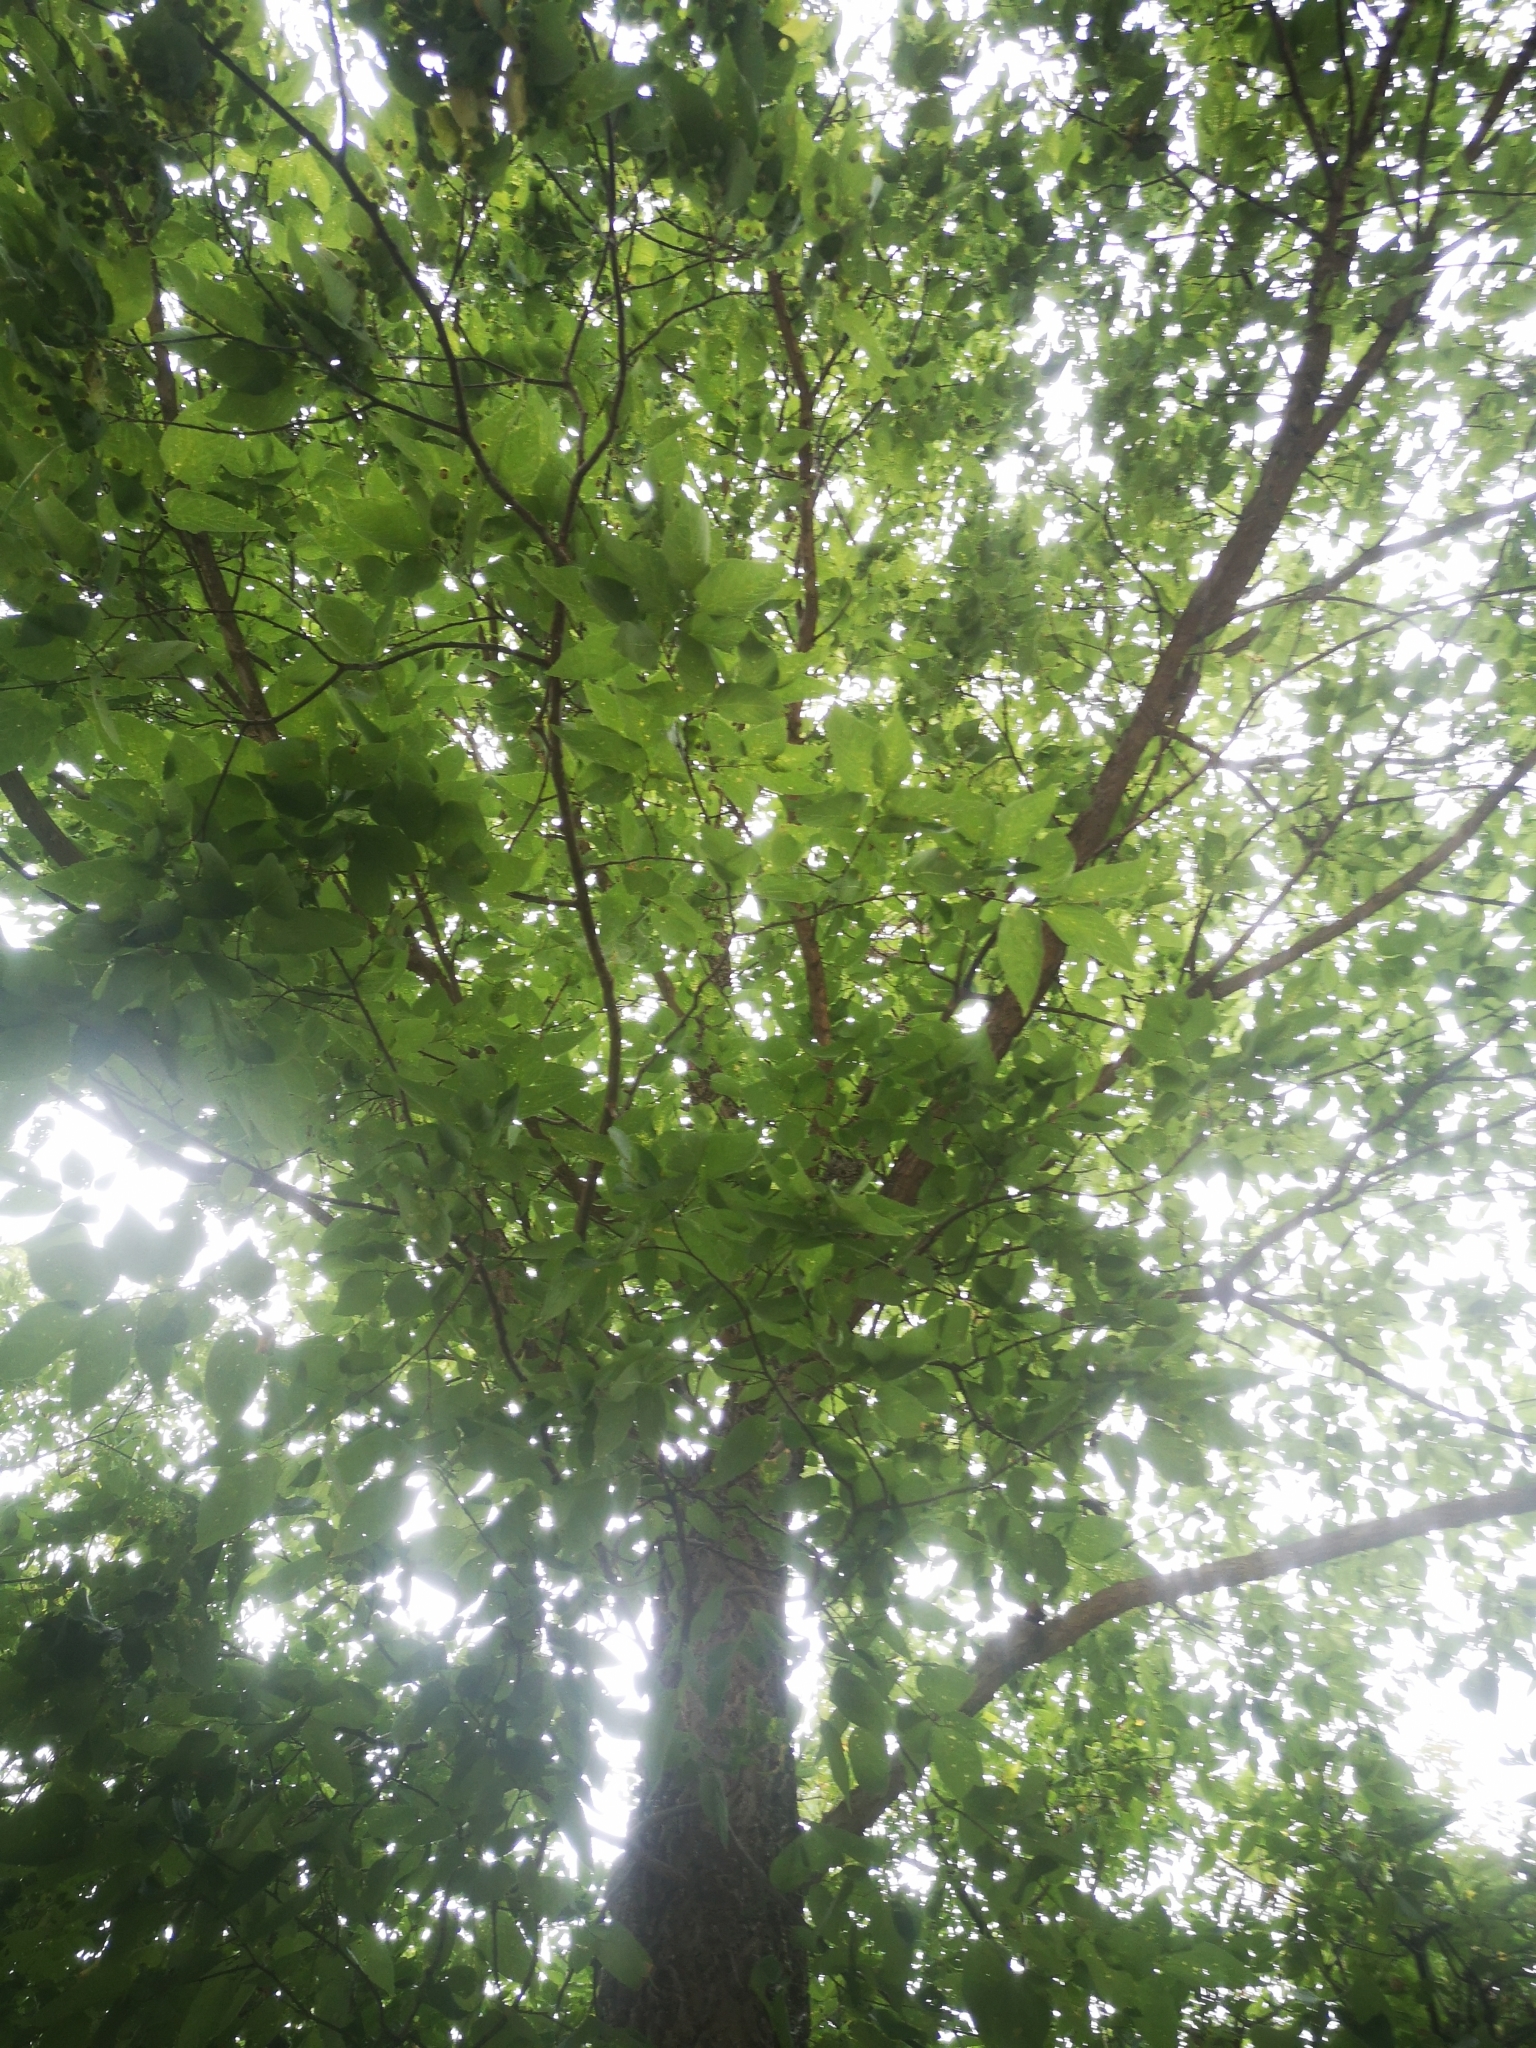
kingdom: Plantae
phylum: Tracheophyta
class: Magnoliopsida
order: Rosales
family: Cannabaceae
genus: Celtis
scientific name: Celtis occidentalis
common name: Common hackberry
